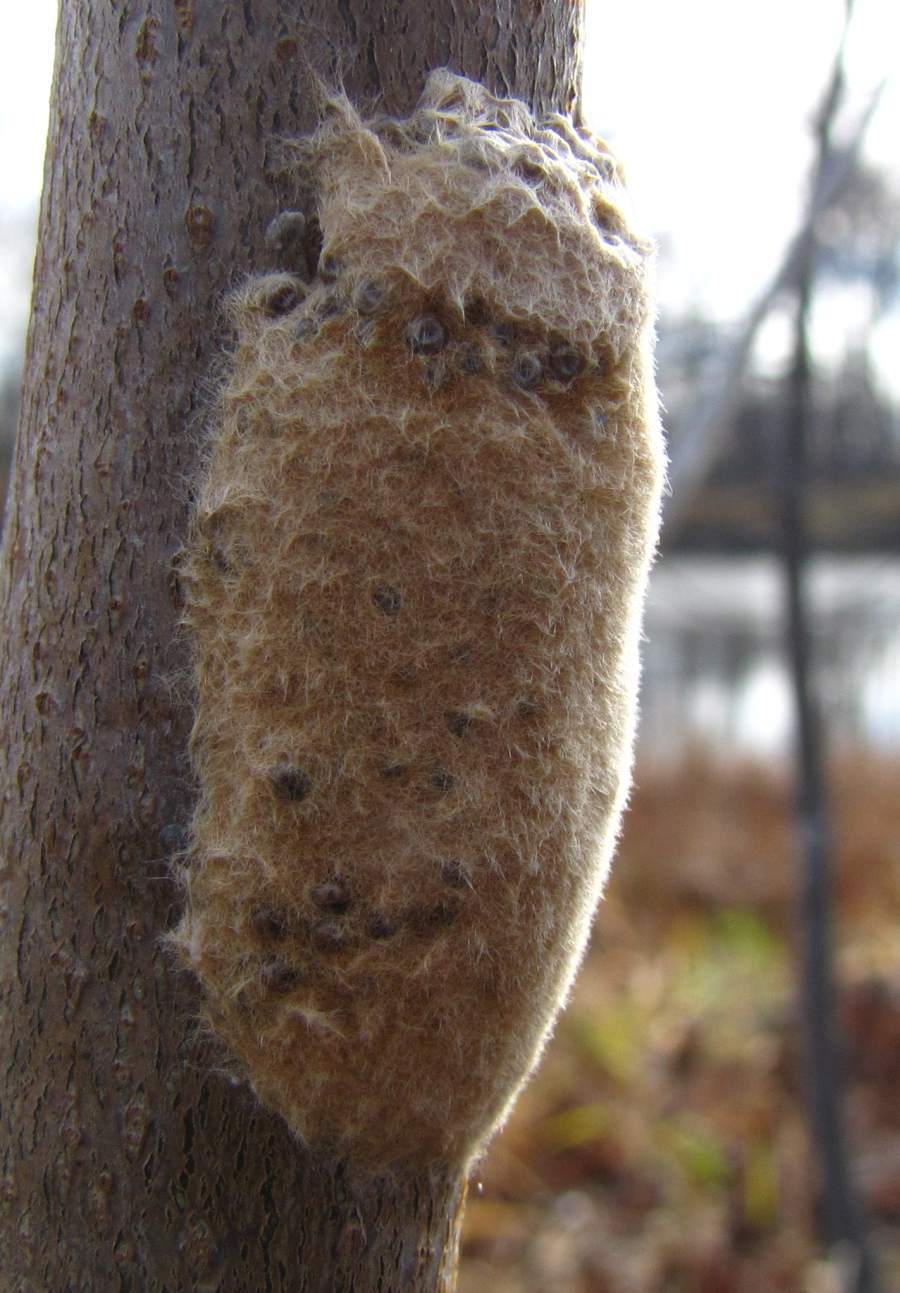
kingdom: Animalia
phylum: Arthropoda
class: Insecta
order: Lepidoptera
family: Erebidae
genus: Lymantria
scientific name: Lymantria dispar
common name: Gypsy moth
